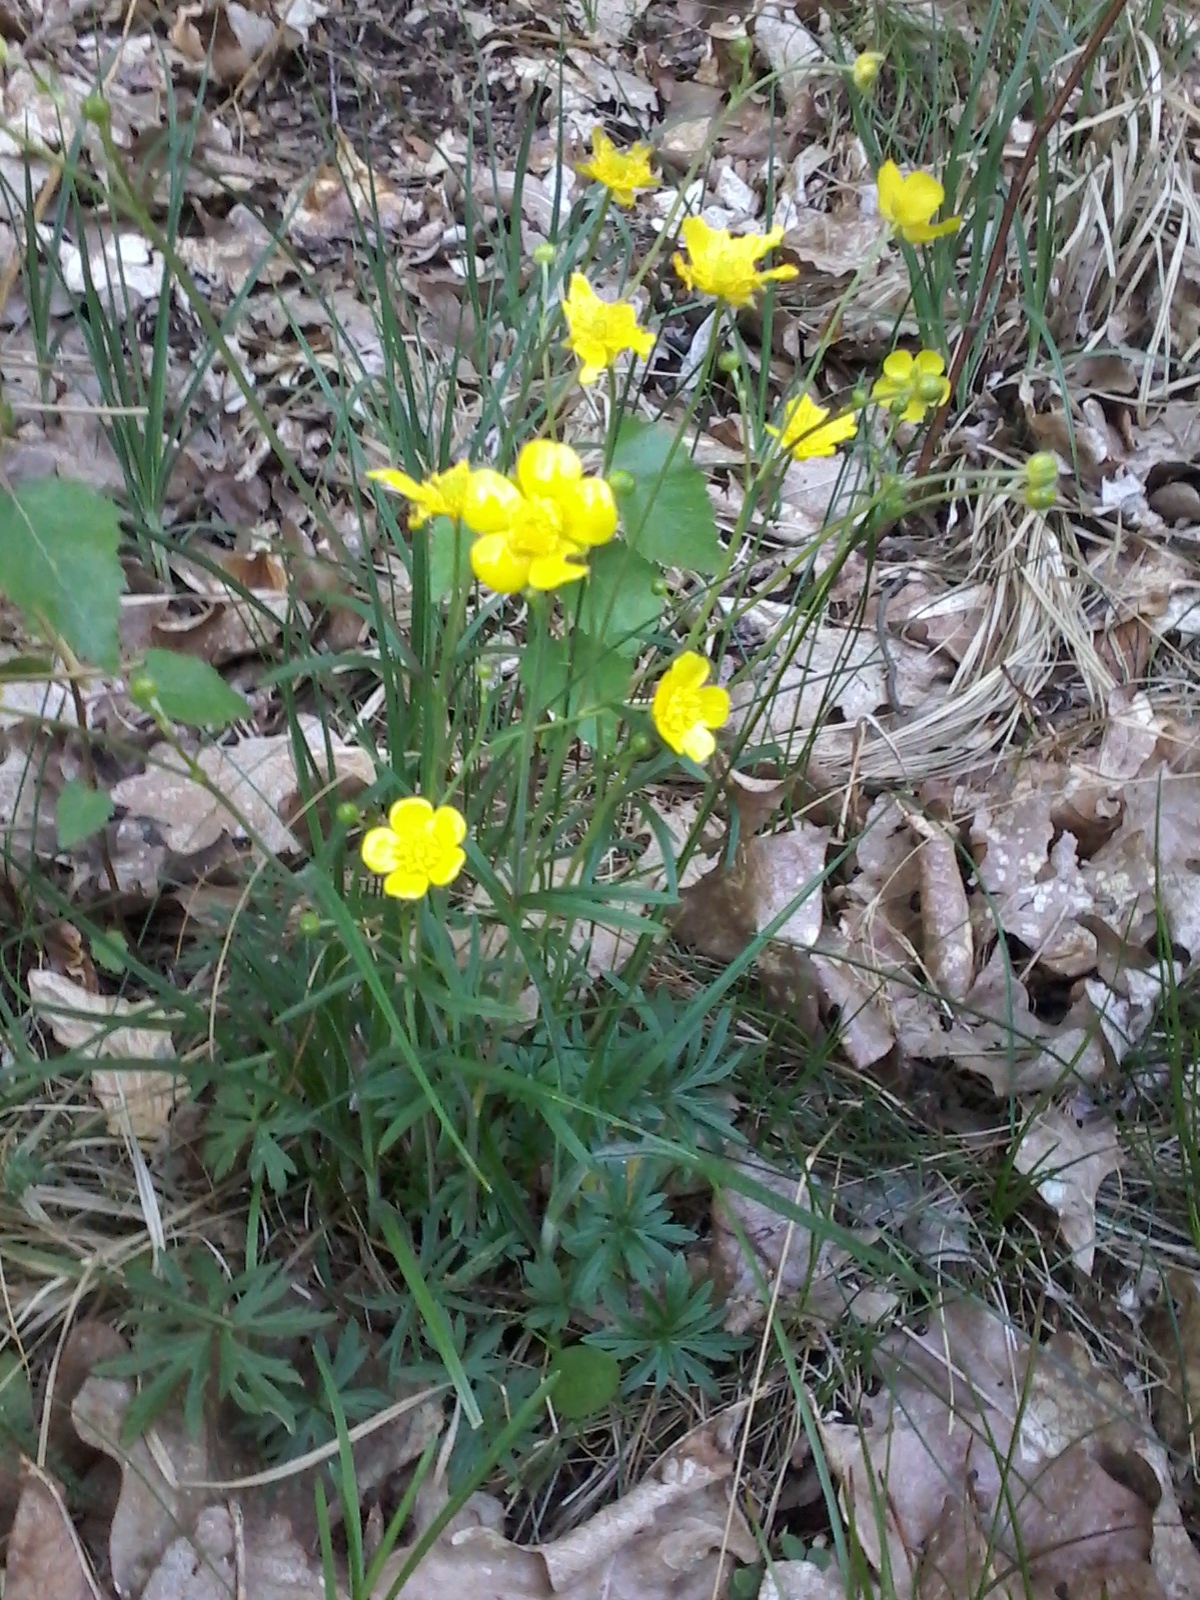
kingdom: Plantae
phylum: Tracheophyta
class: Magnoliopsida
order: Ranunculales
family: Ranunculaceae
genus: Ranunculus
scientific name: Ranunculus acris
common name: Meadow buttercup
